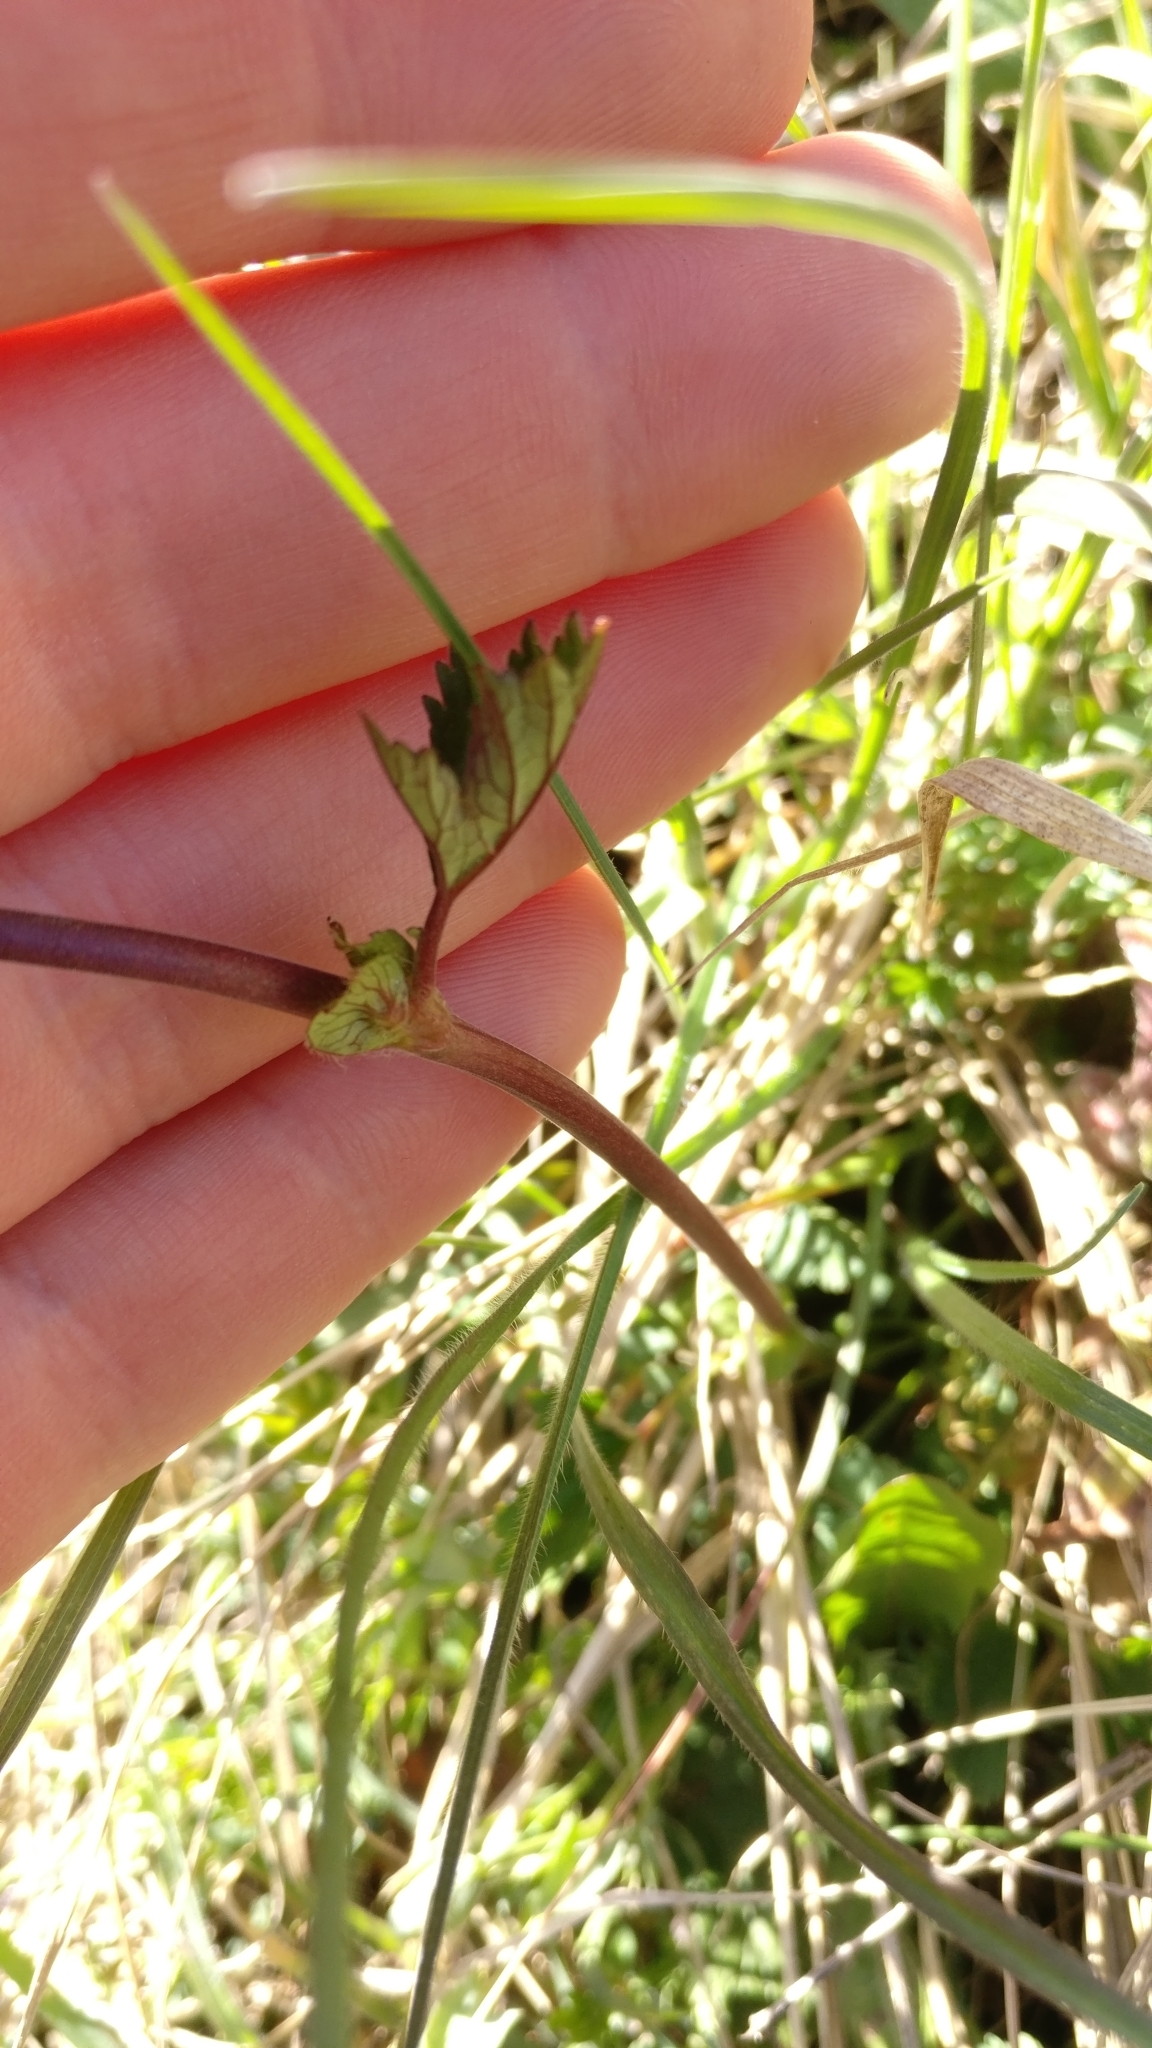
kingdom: Plantae
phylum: Tracheophyta
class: Magnoliopsida
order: Rosales
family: Rosaceae
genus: Geum
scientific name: Geum rivale
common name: Water avens
